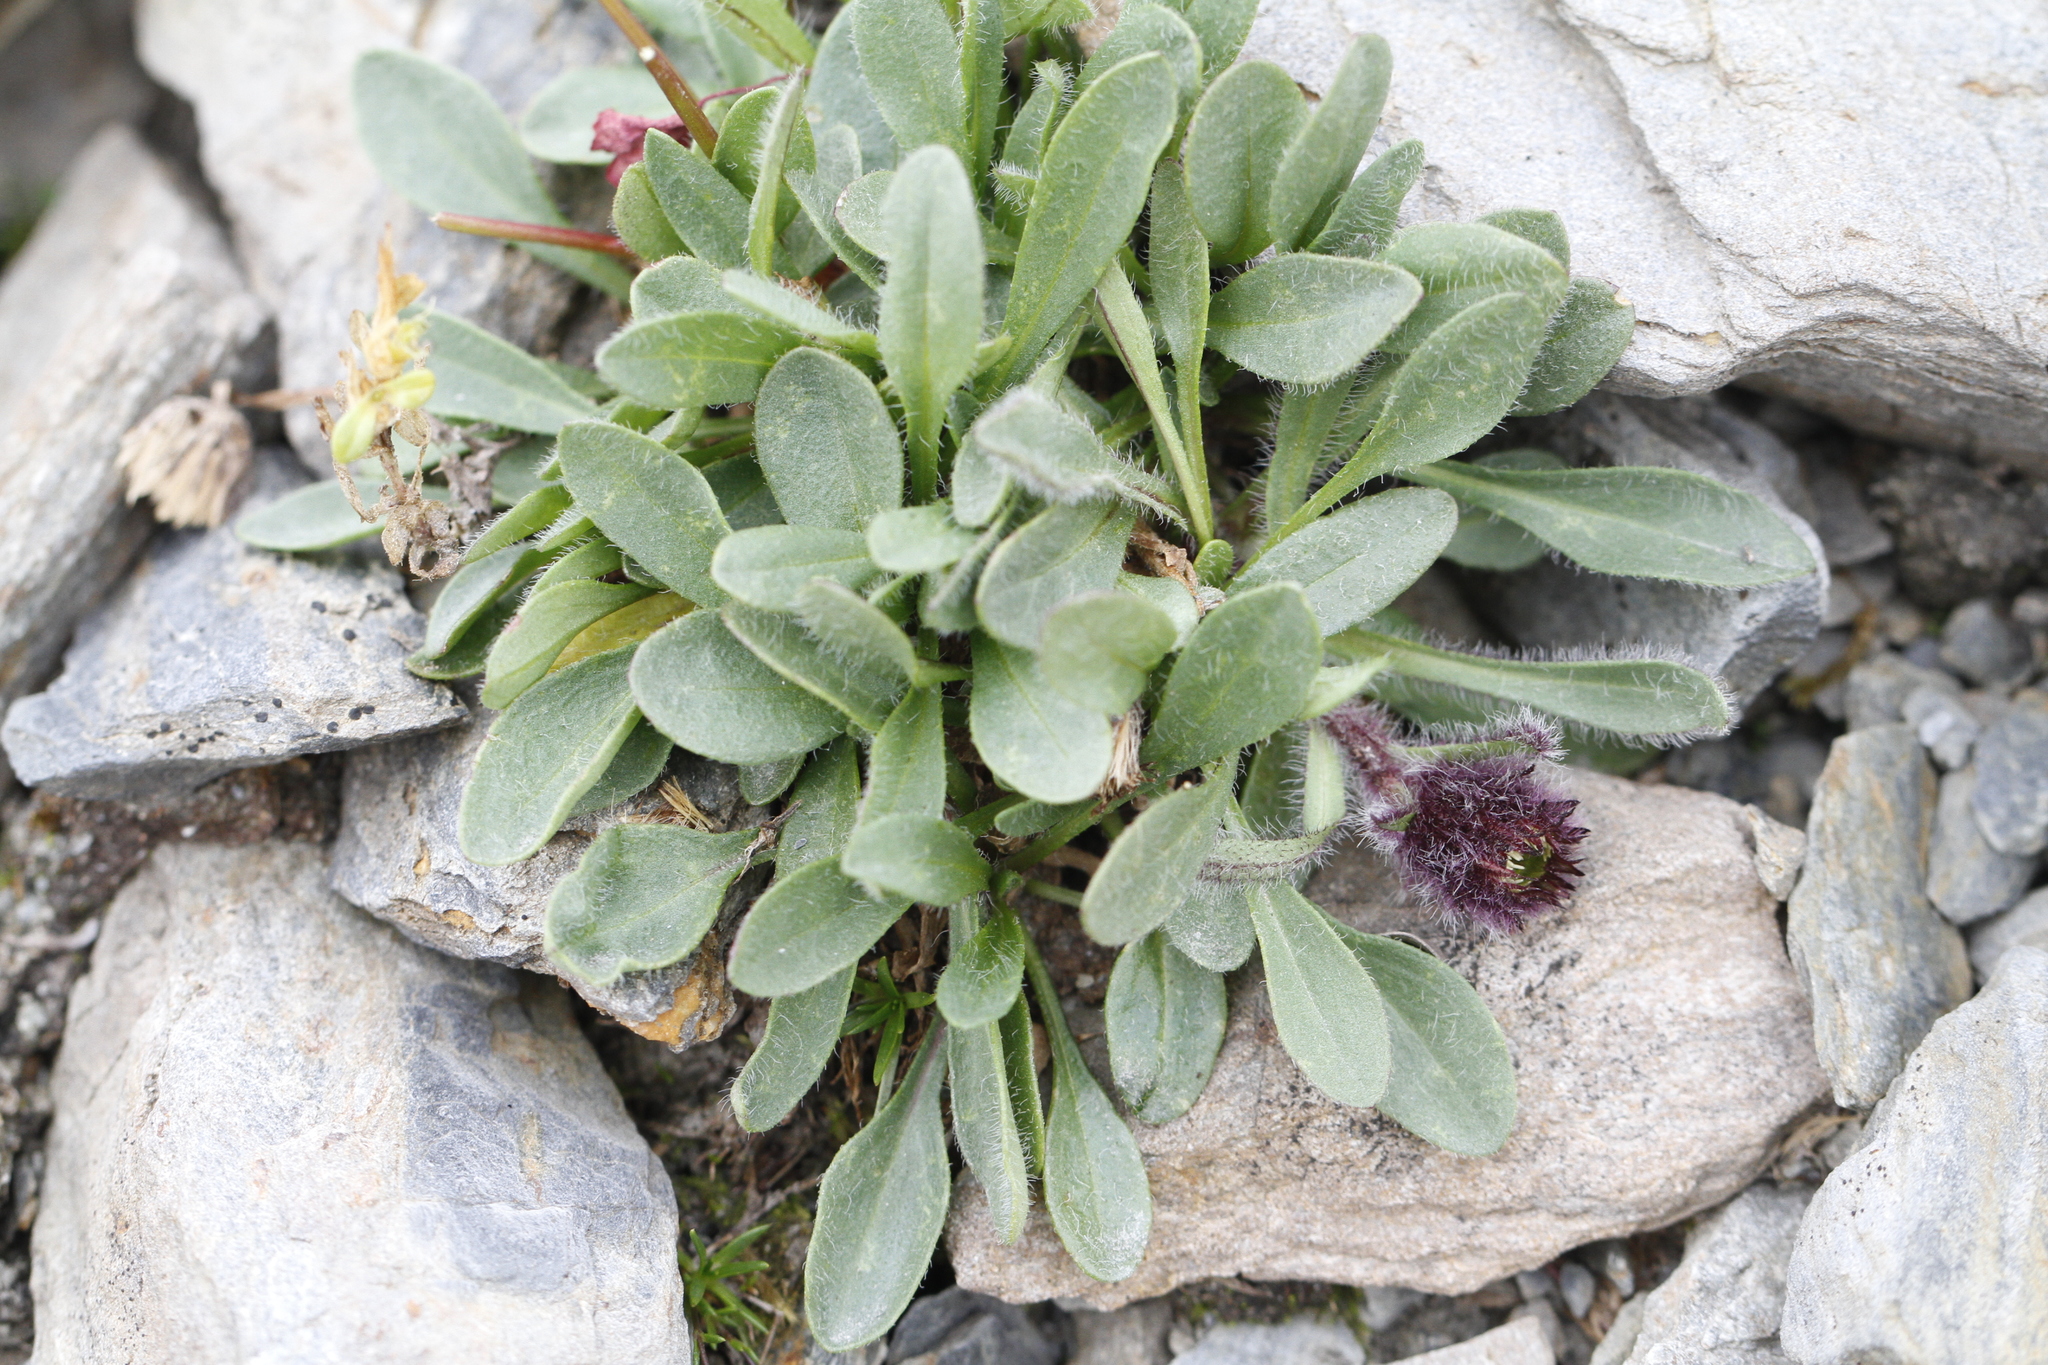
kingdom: Plantae
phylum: Tracheophyta
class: Magnoliopsida
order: Asterales
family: Asteraceae
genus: Erigeron
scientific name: Erigeron humilis
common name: Arctic-alpine fleabane
